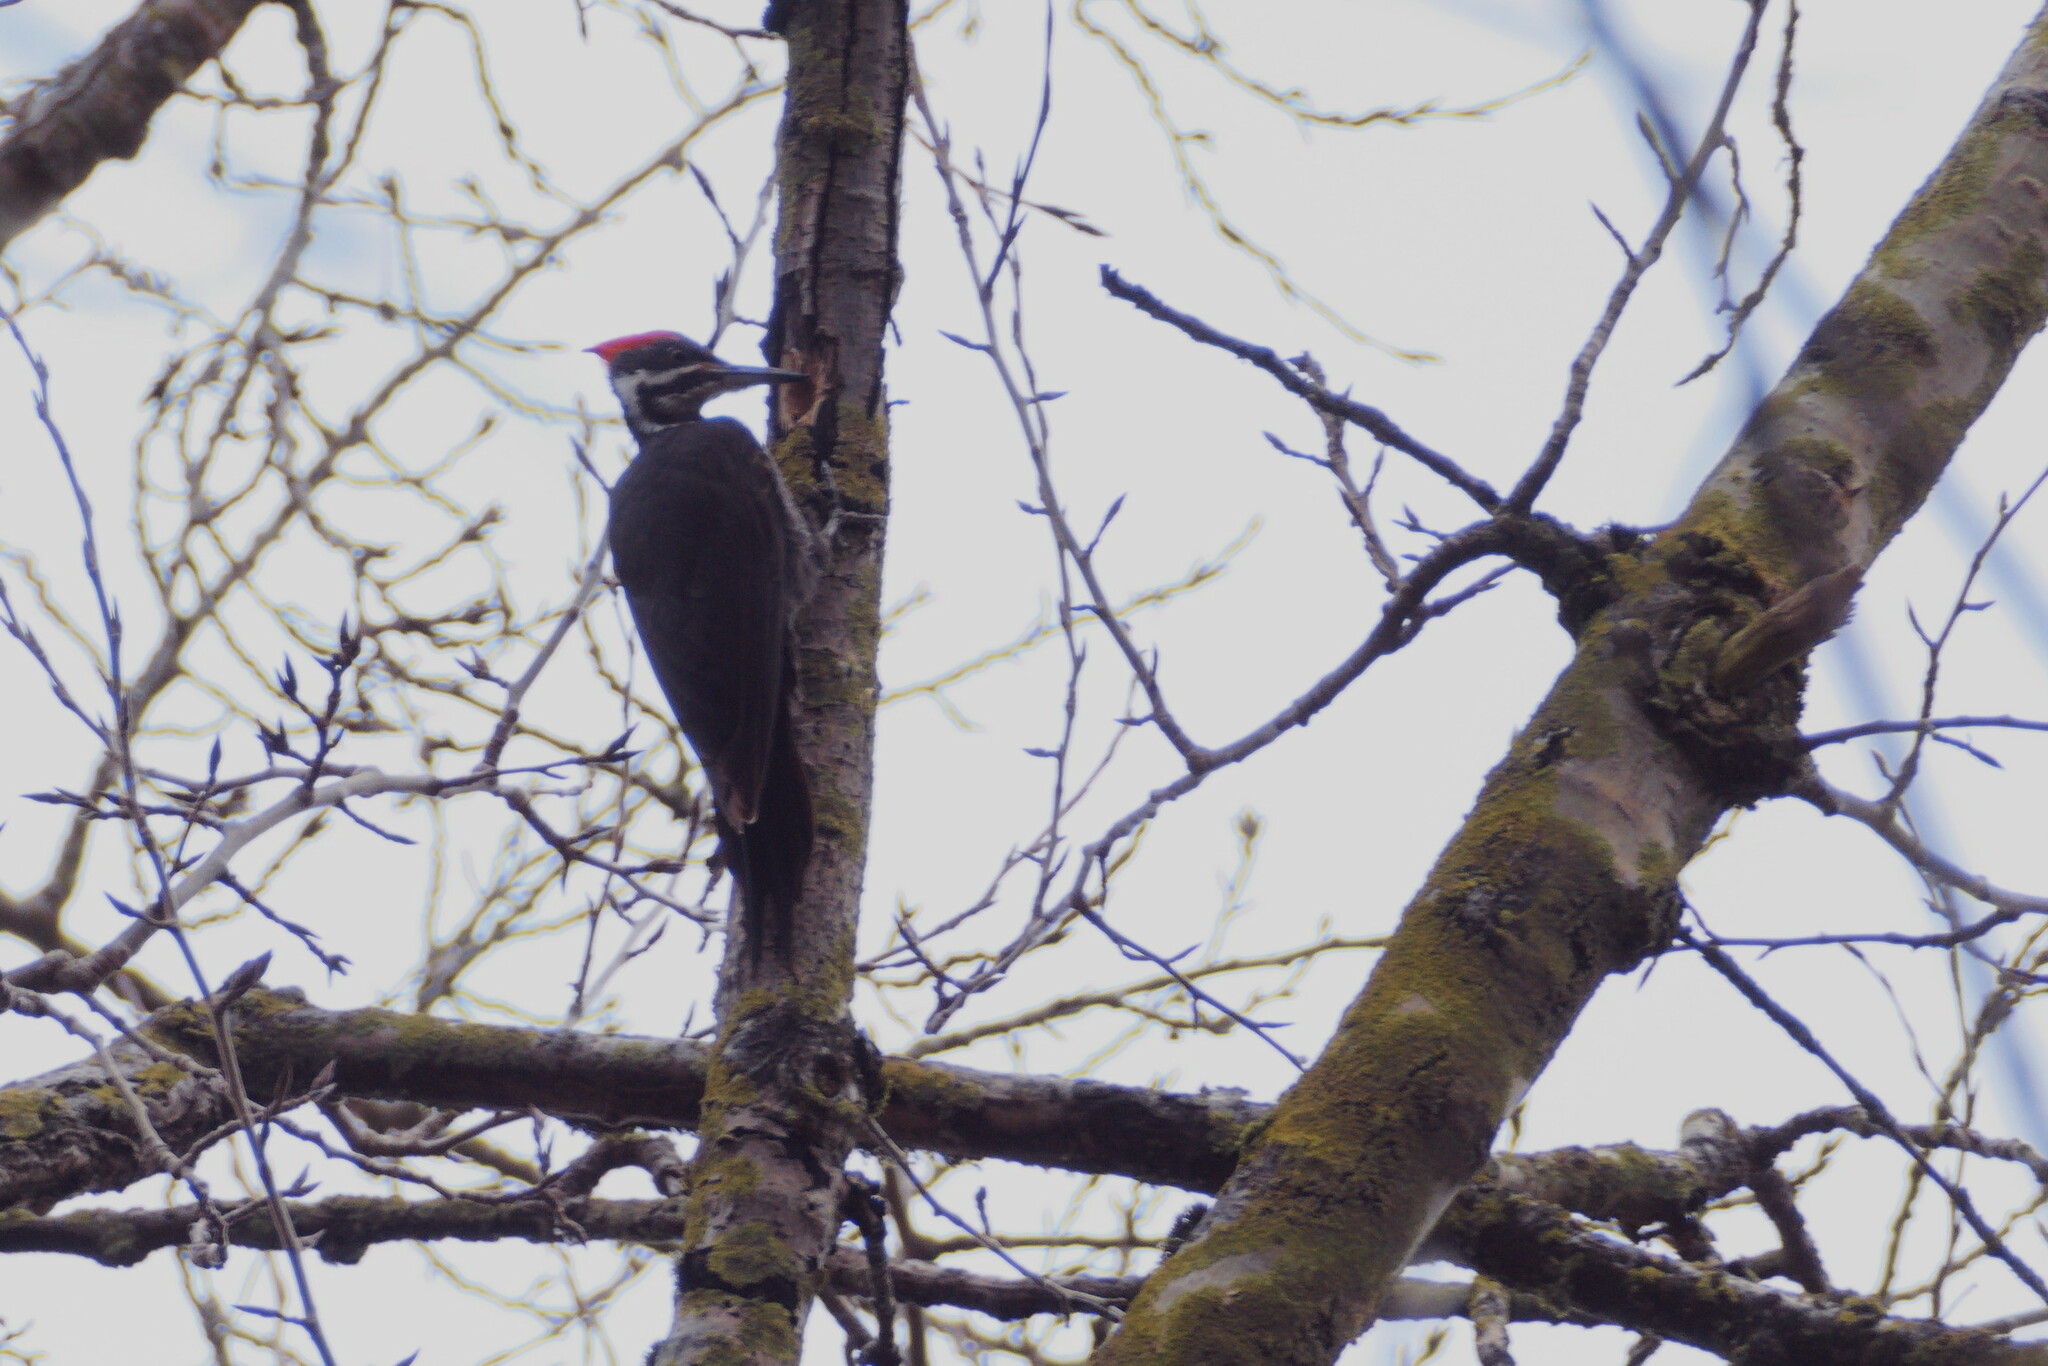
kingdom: Animalia
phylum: Chordata
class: Aves
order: Piciformes
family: Picidae
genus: Dryocopus
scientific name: Dryocopus pileatus
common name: Pileated woodpecker
